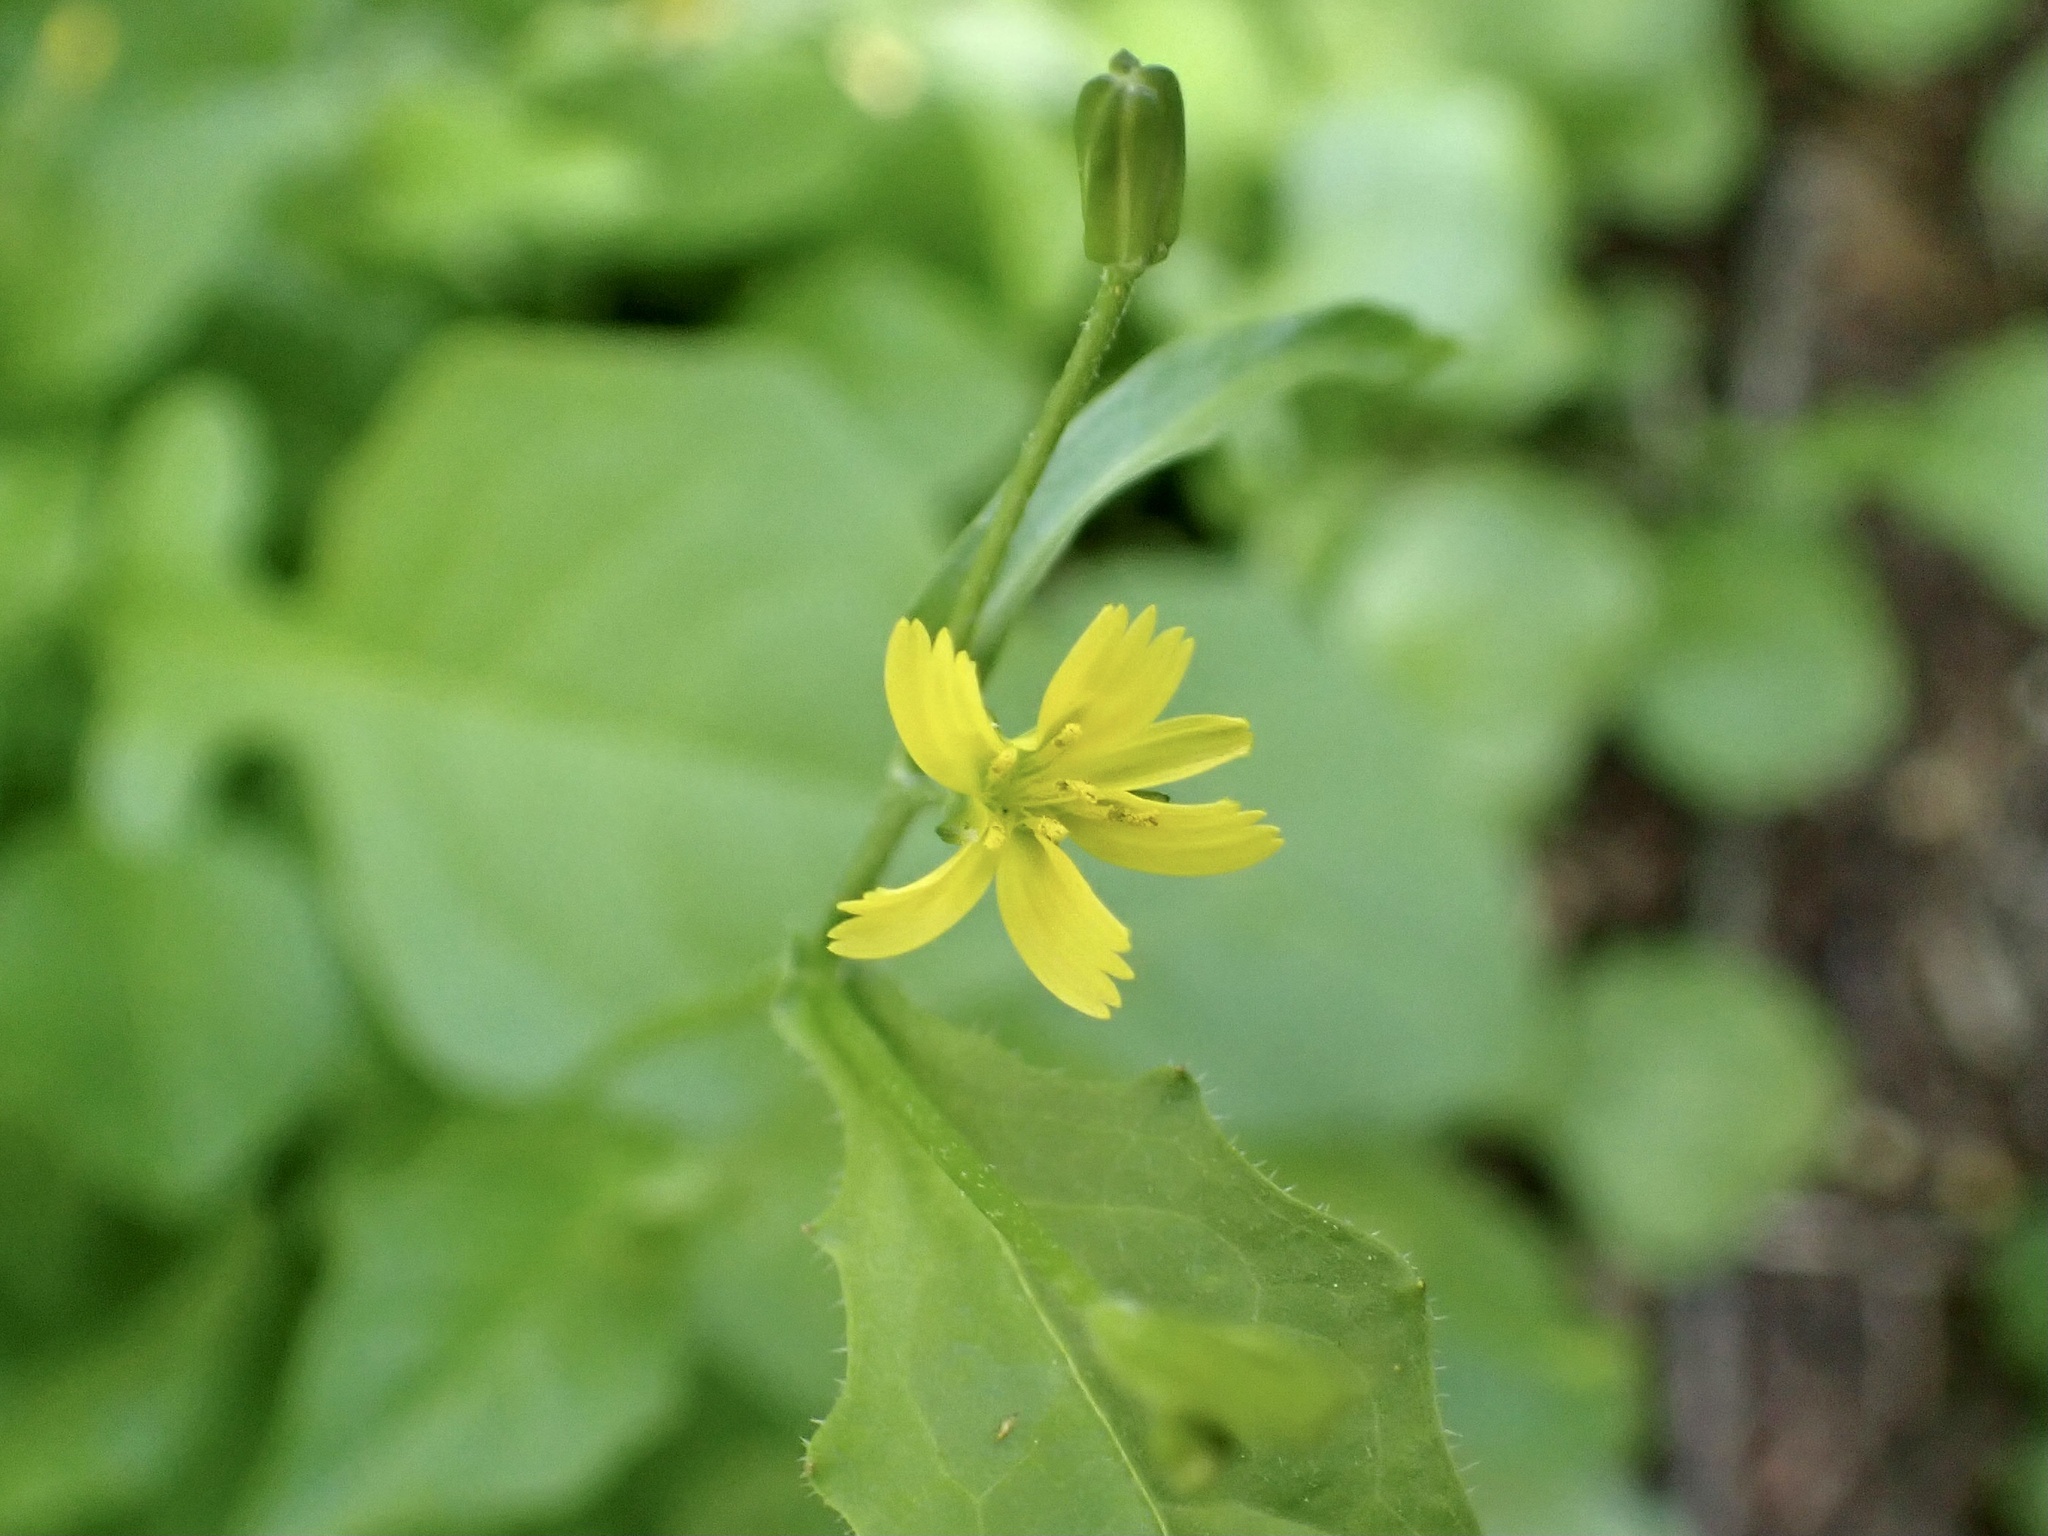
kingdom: Plantae
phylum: Tracheophyta
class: Magnoliopsida
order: Asterales
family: Asteraceae
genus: Rhagadiolus
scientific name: Rhagadiolus stellatus
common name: Star hawkbit
